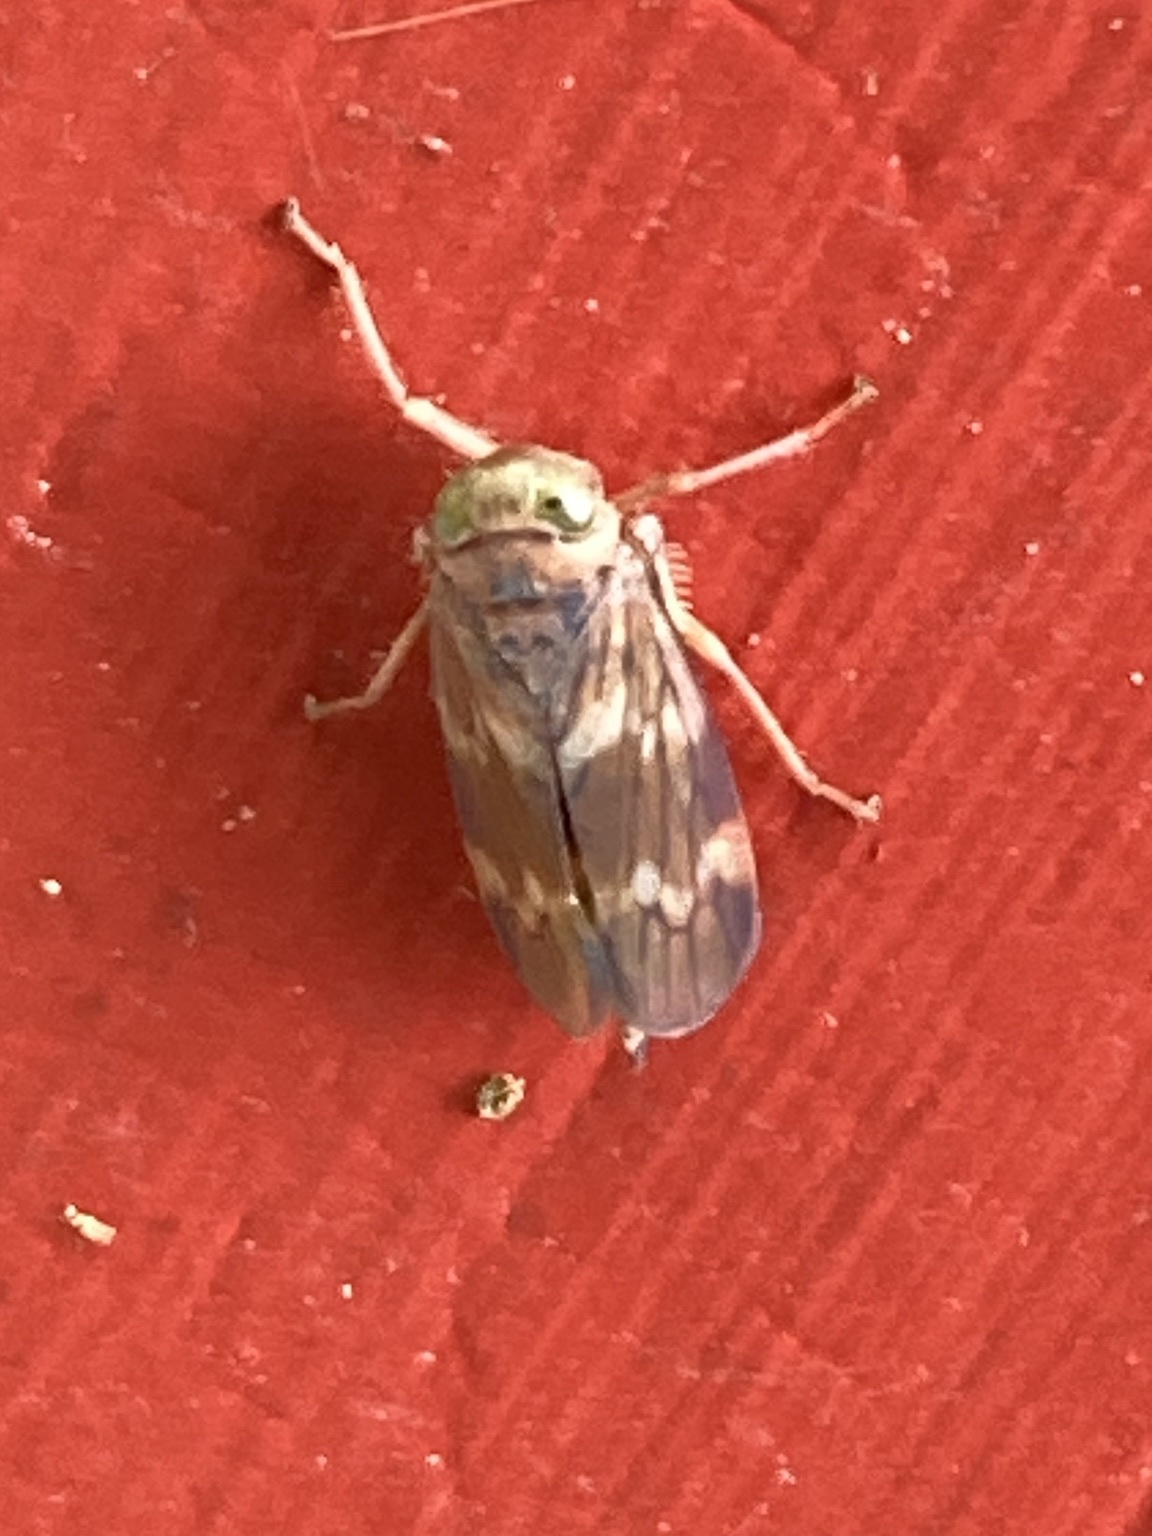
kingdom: Animalia
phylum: Arthropoda
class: Insecta
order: Hemiptera
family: Cicadellidae
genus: Jikradia
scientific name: Jikradia olitoria
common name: Coppery leafhopper
